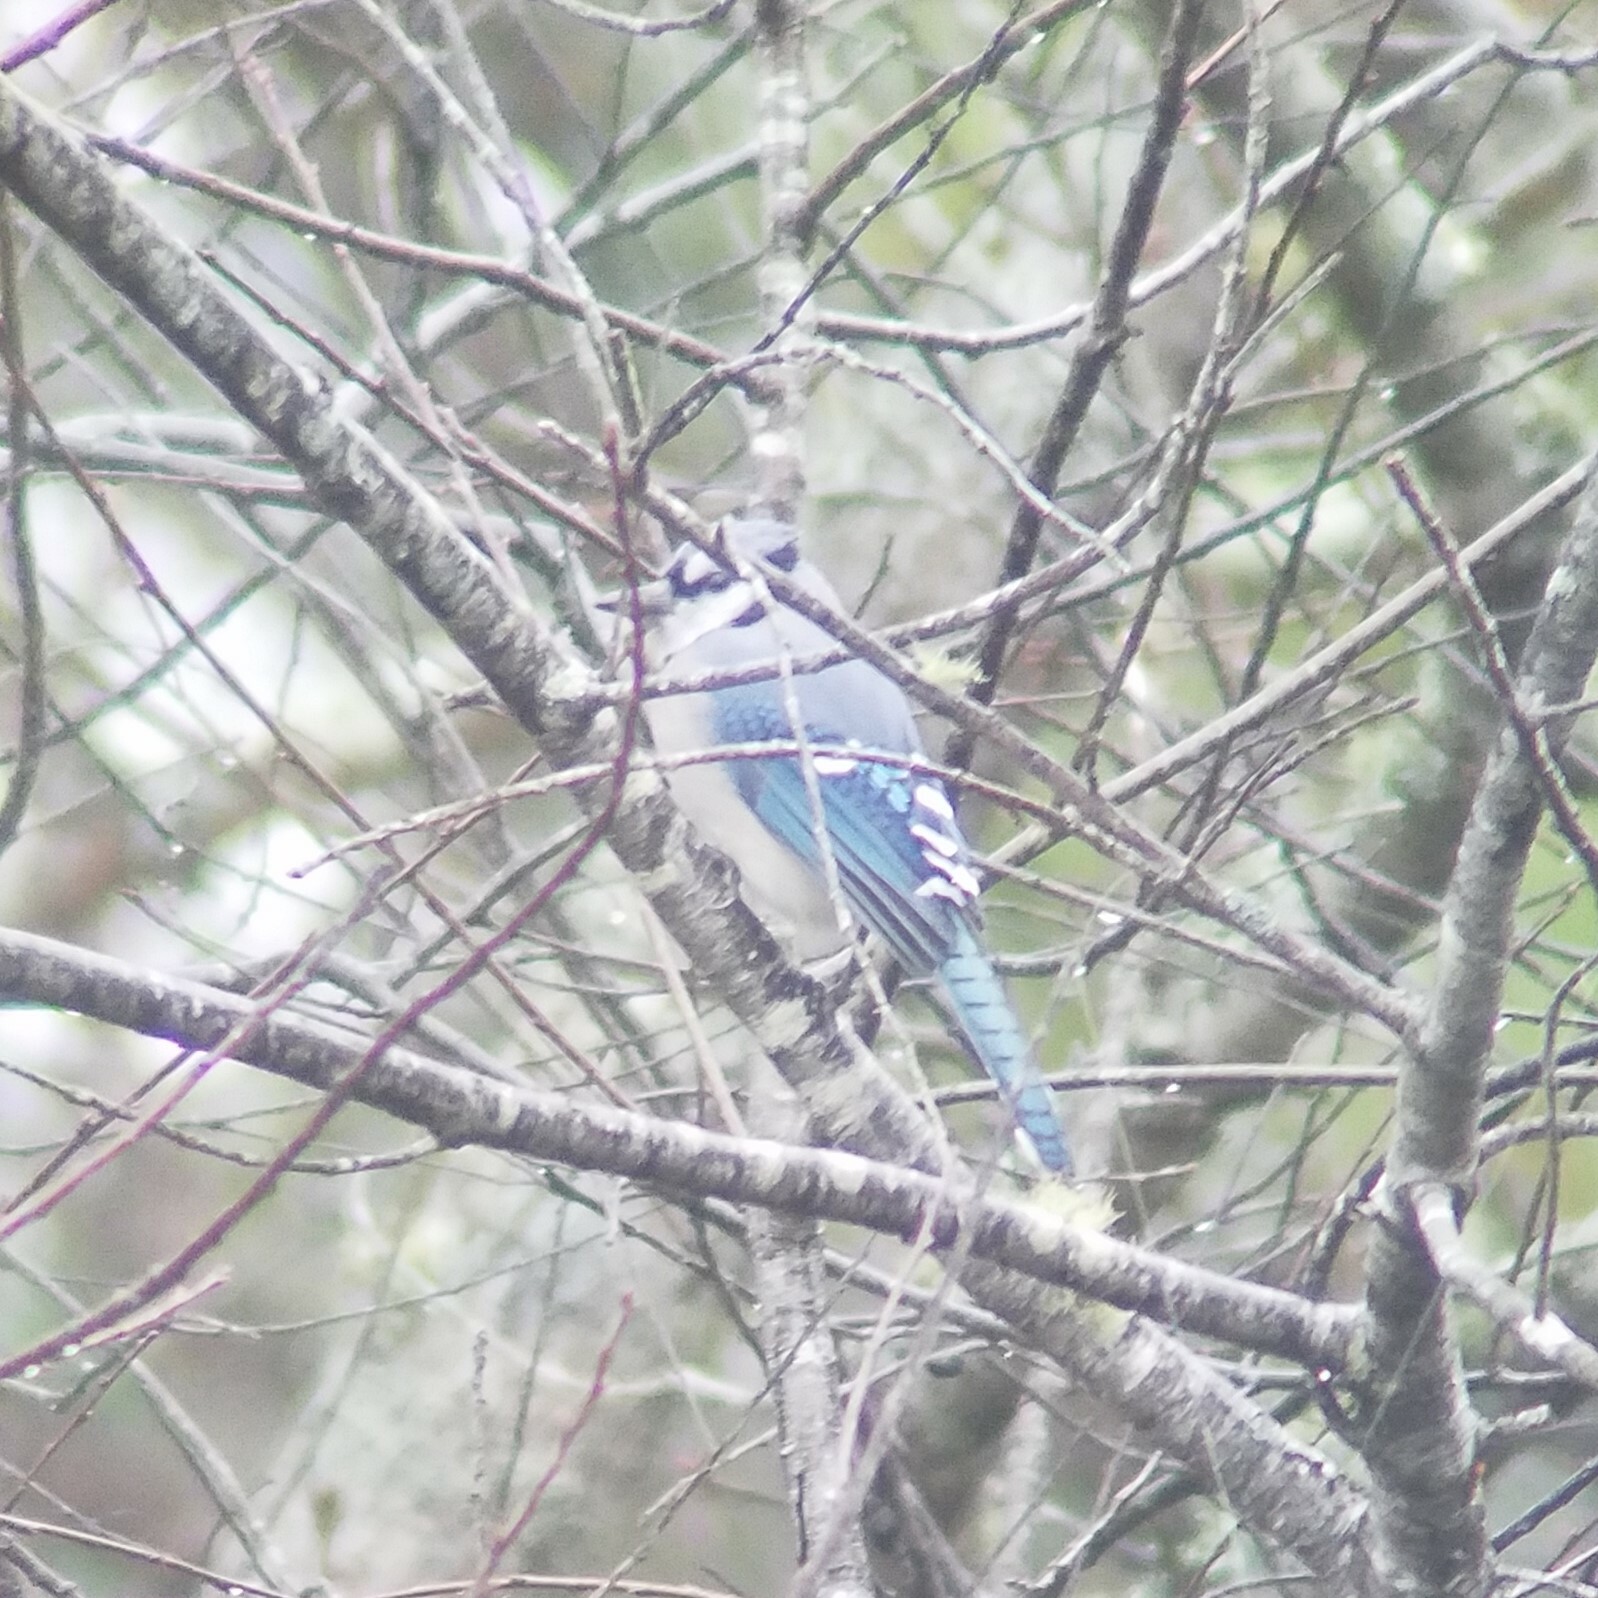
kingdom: Animalia
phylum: Chordata
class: Aves
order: Passeriformes
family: Corvidae
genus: Cyanocitta
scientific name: Cyanocitta cristata
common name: Blue jay
